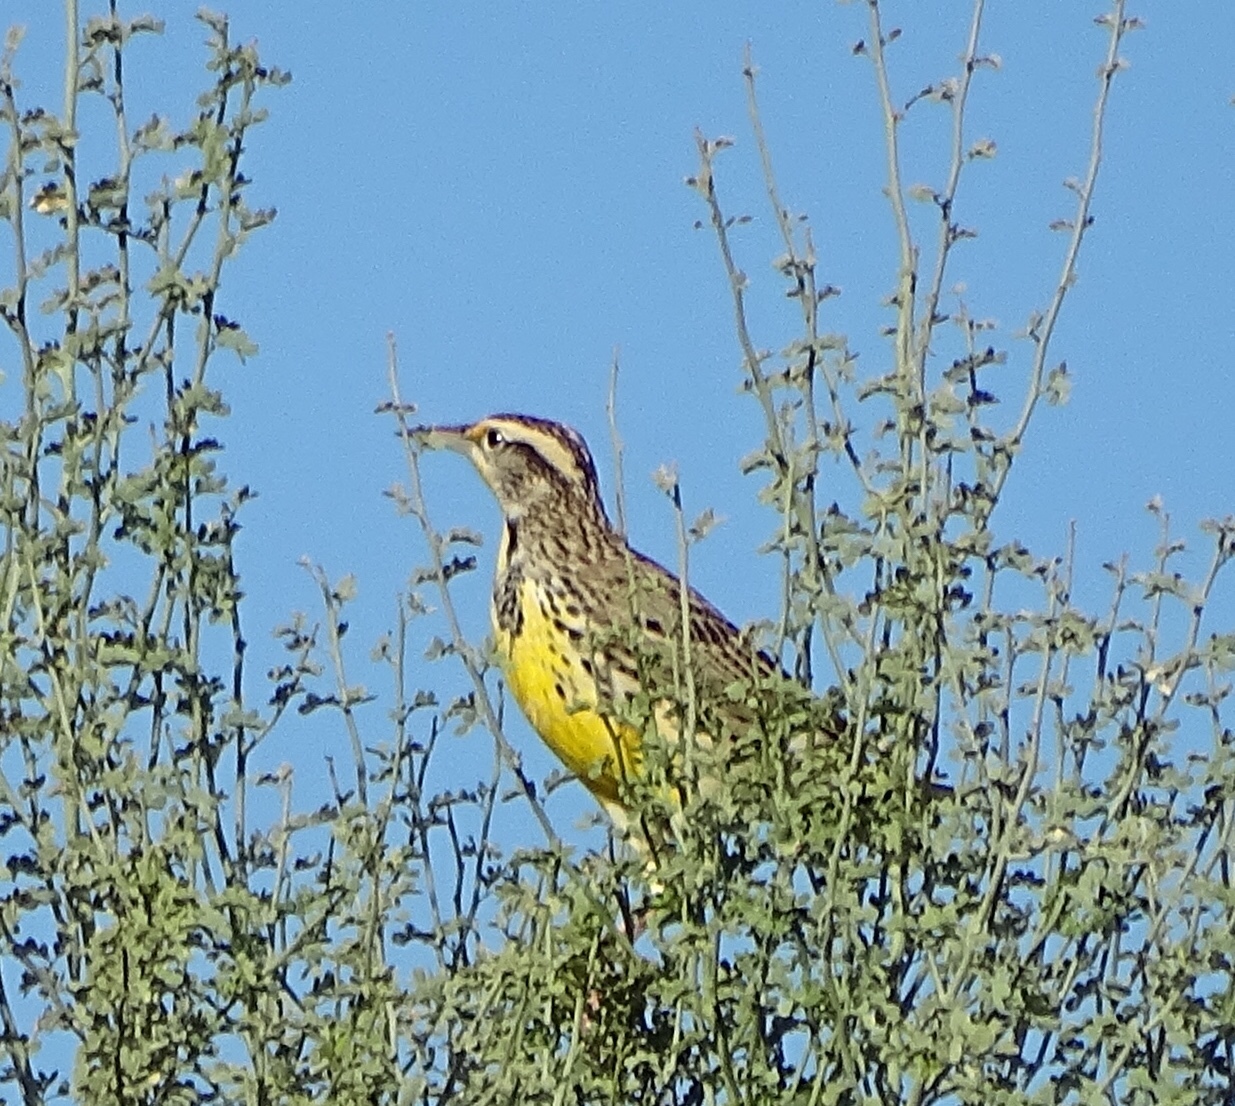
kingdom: Animalia
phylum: Chordata
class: Aves
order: Passeriformes
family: Icteridae
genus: Sturnella
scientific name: Sturnella neglecta
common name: Western meadowlark
